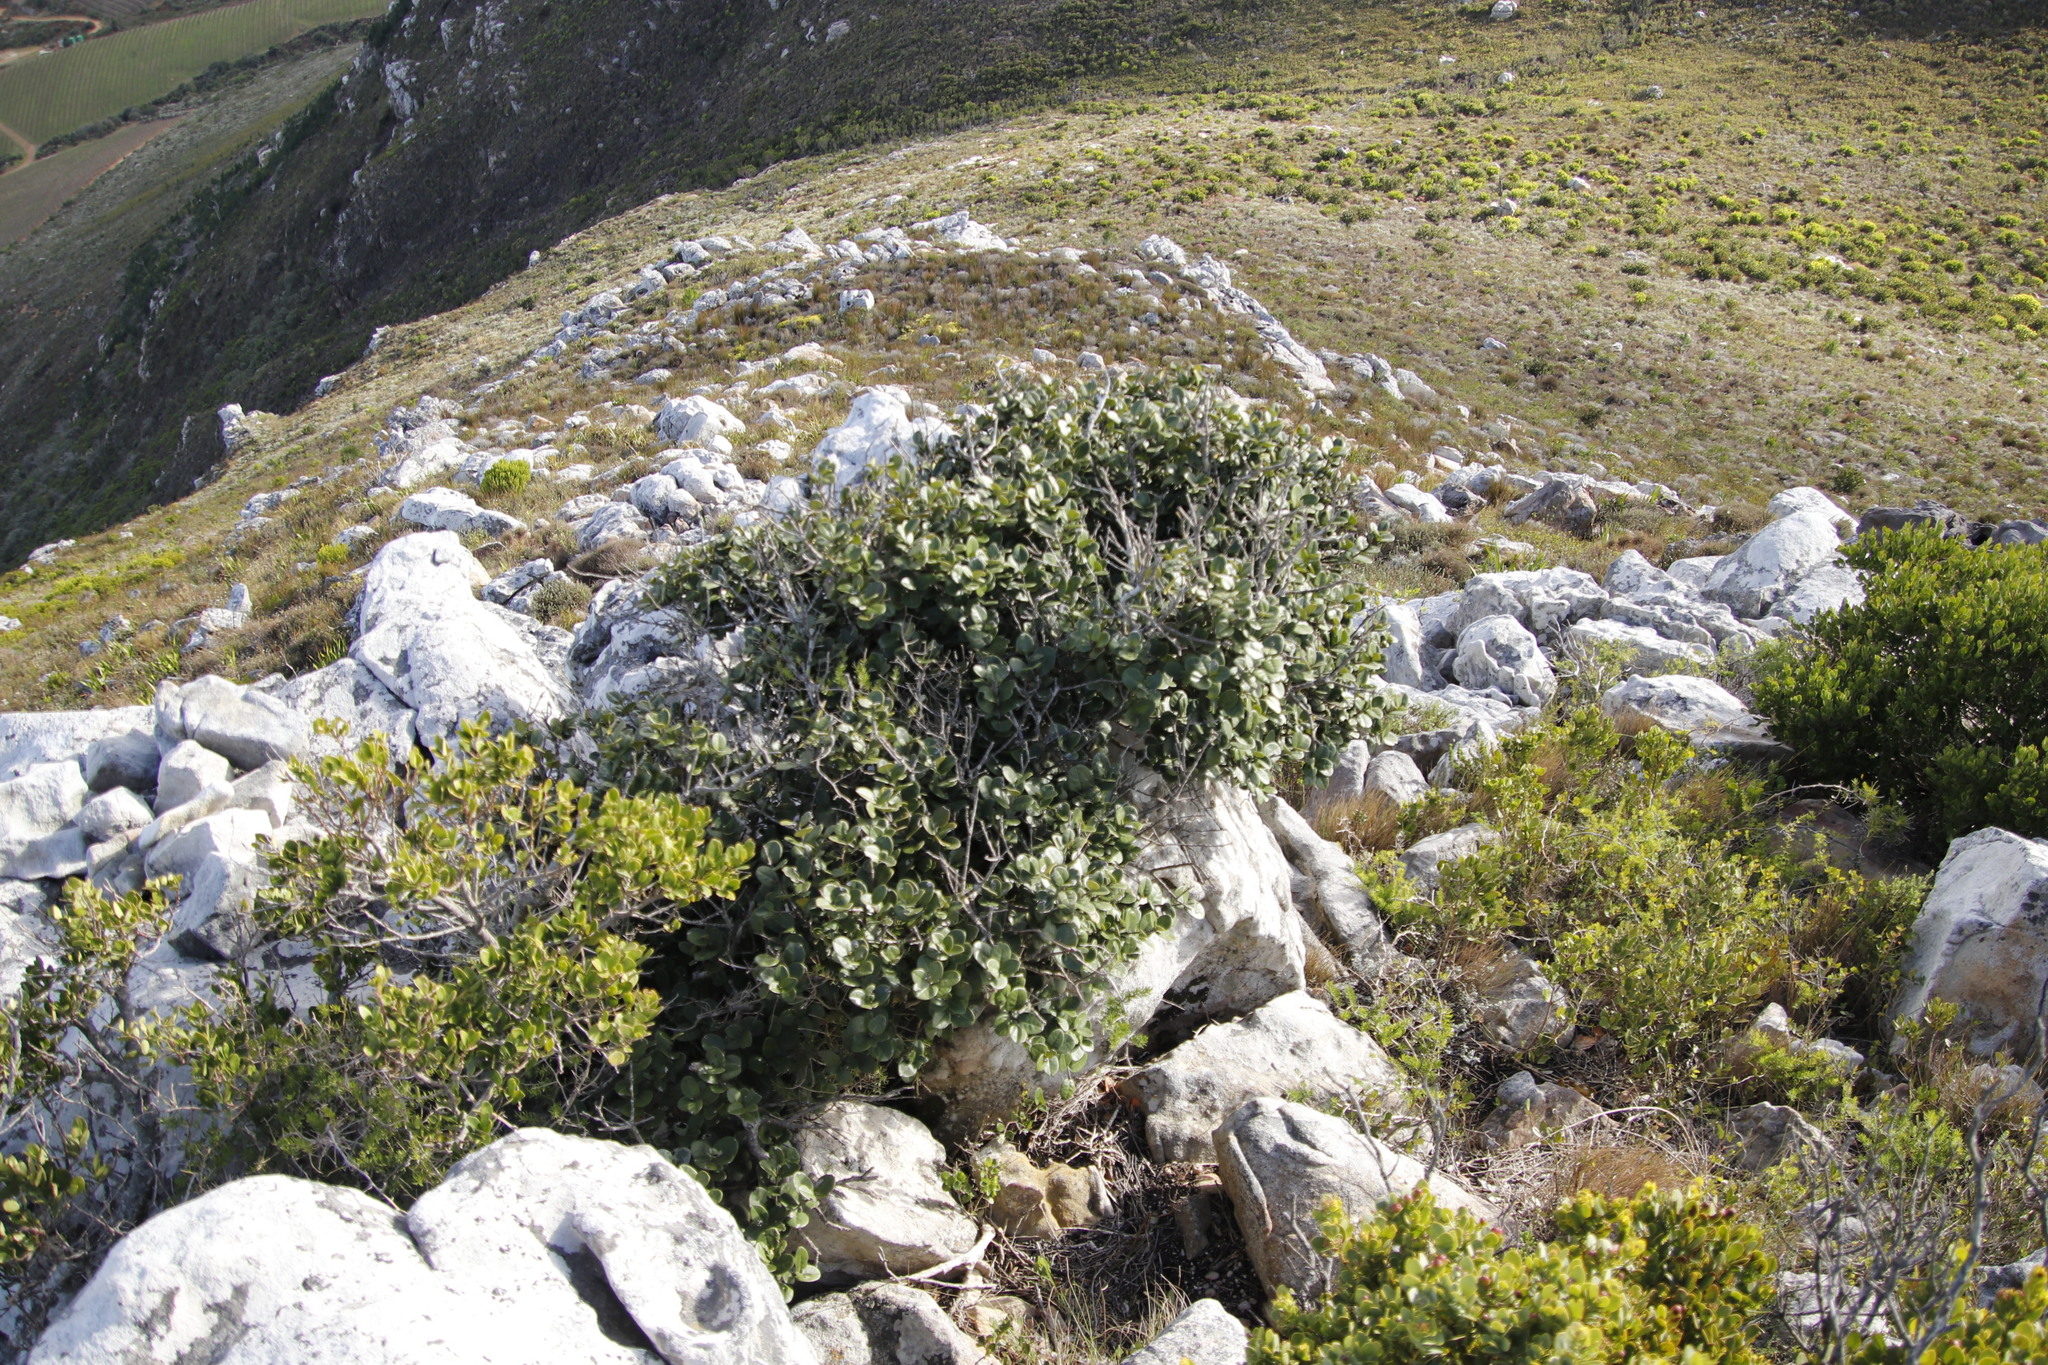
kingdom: Plantae
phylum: Tracheophyta
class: Magnoliopsida
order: Celastrales
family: Celastraceae
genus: Maurocenia
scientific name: Maurocenia frangula
